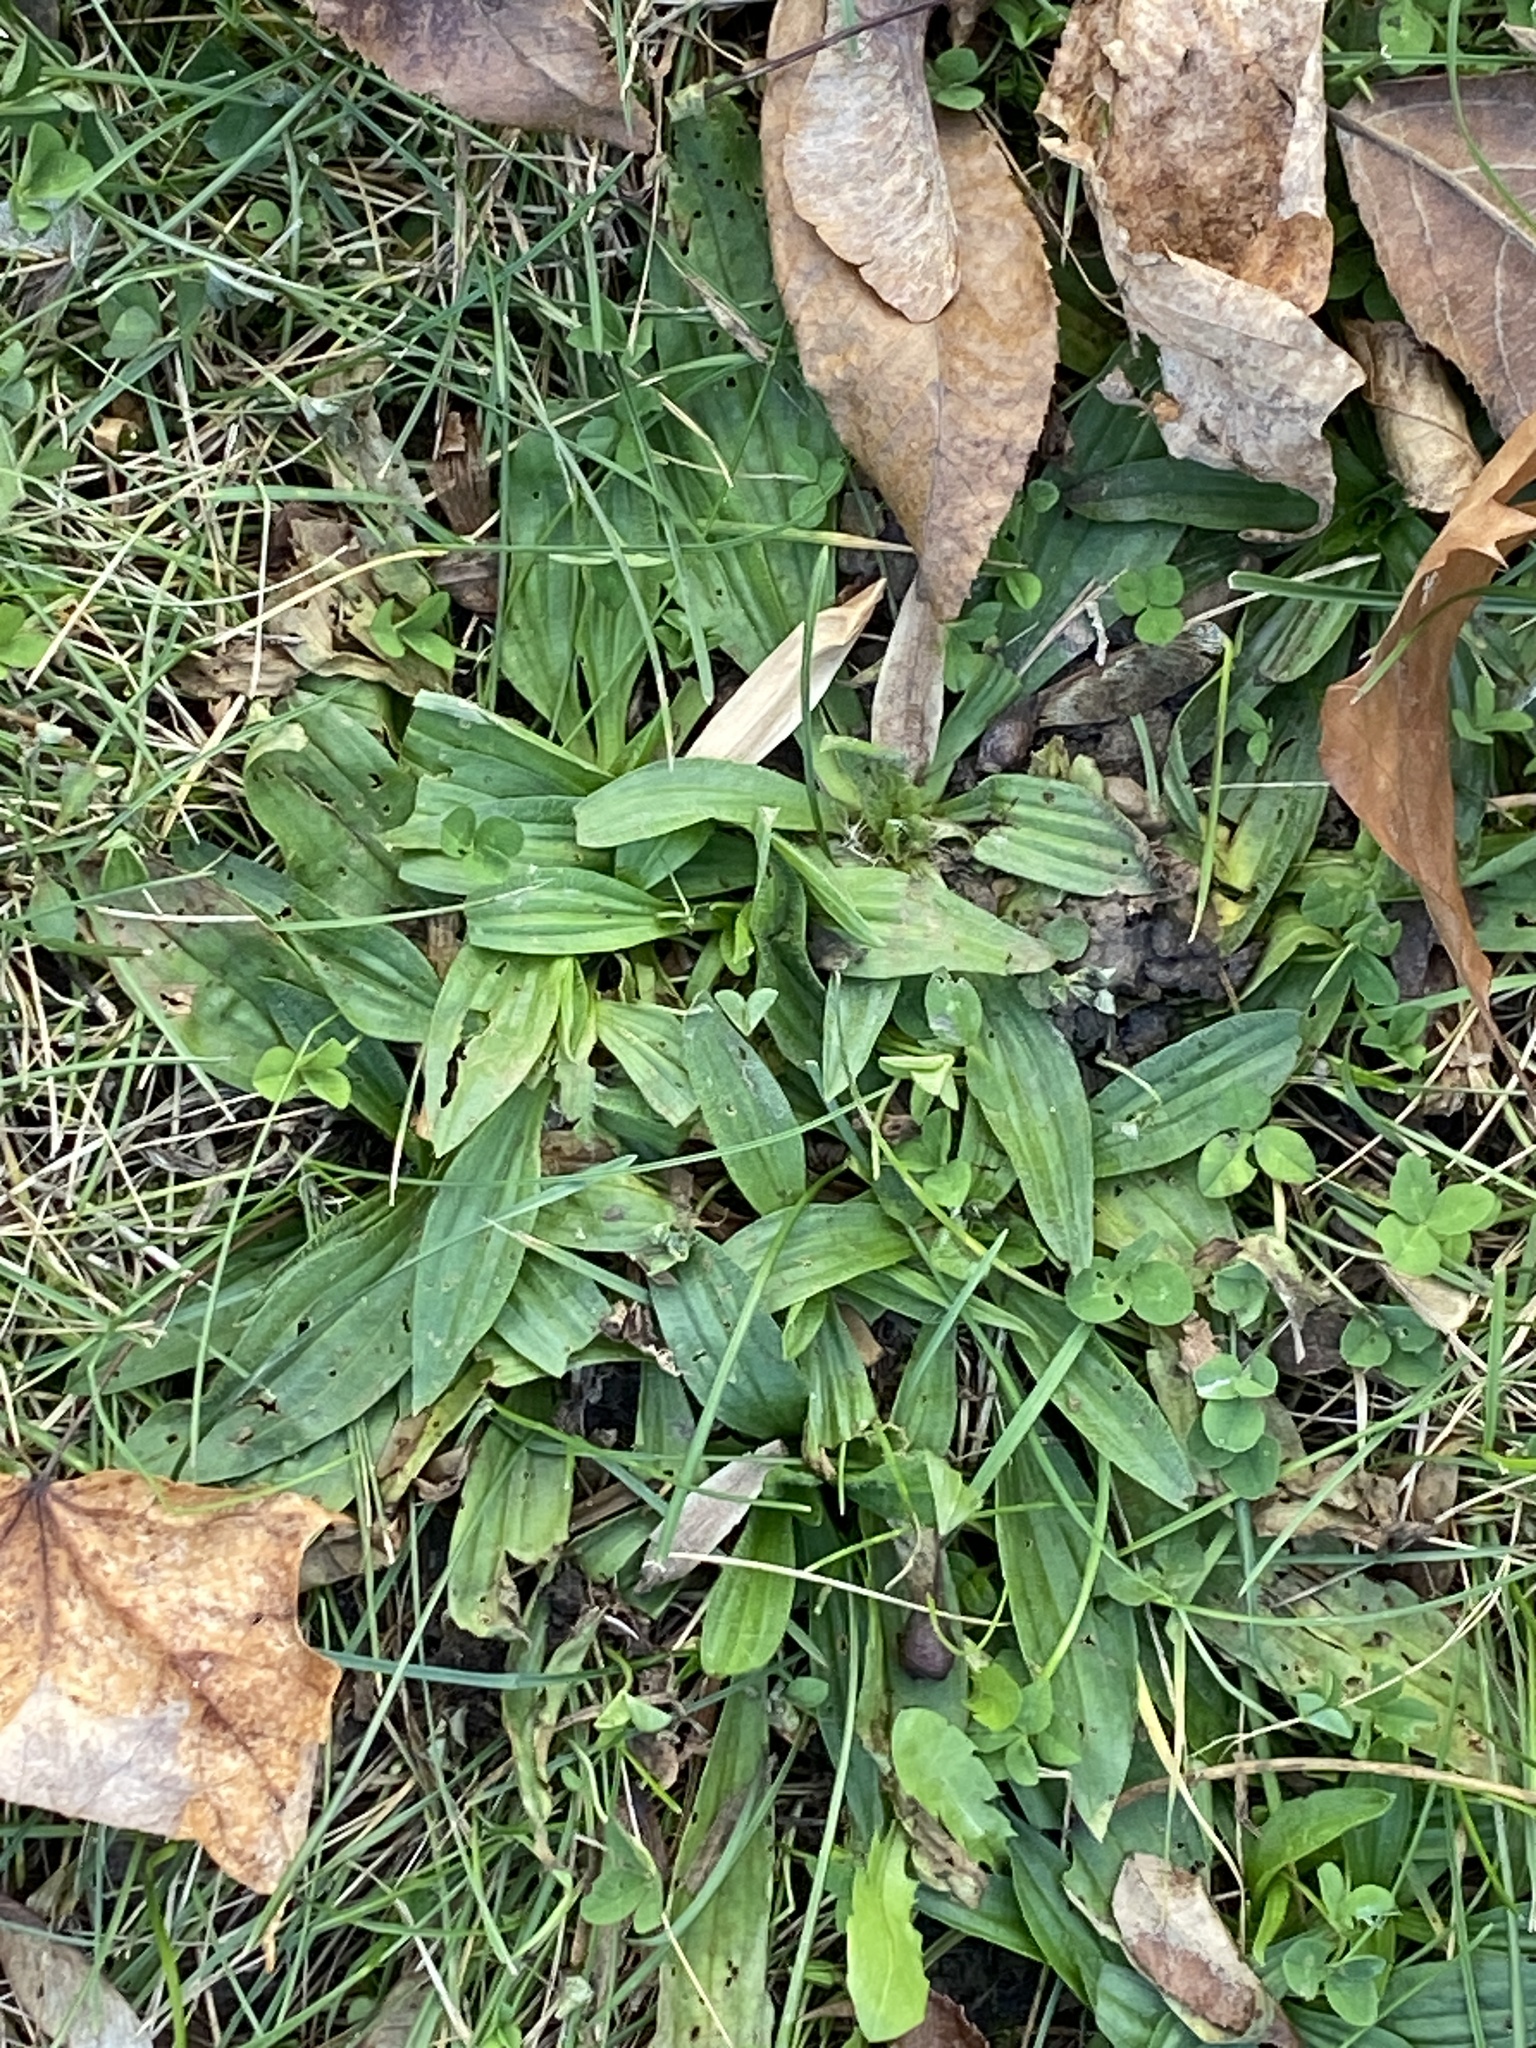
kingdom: Plantae
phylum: Tracheophyta
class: Magnoliopsida
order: Lamiales
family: Plantaginaceae
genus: Plantago
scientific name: Plantago lanceolata
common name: Ribwort plantain
